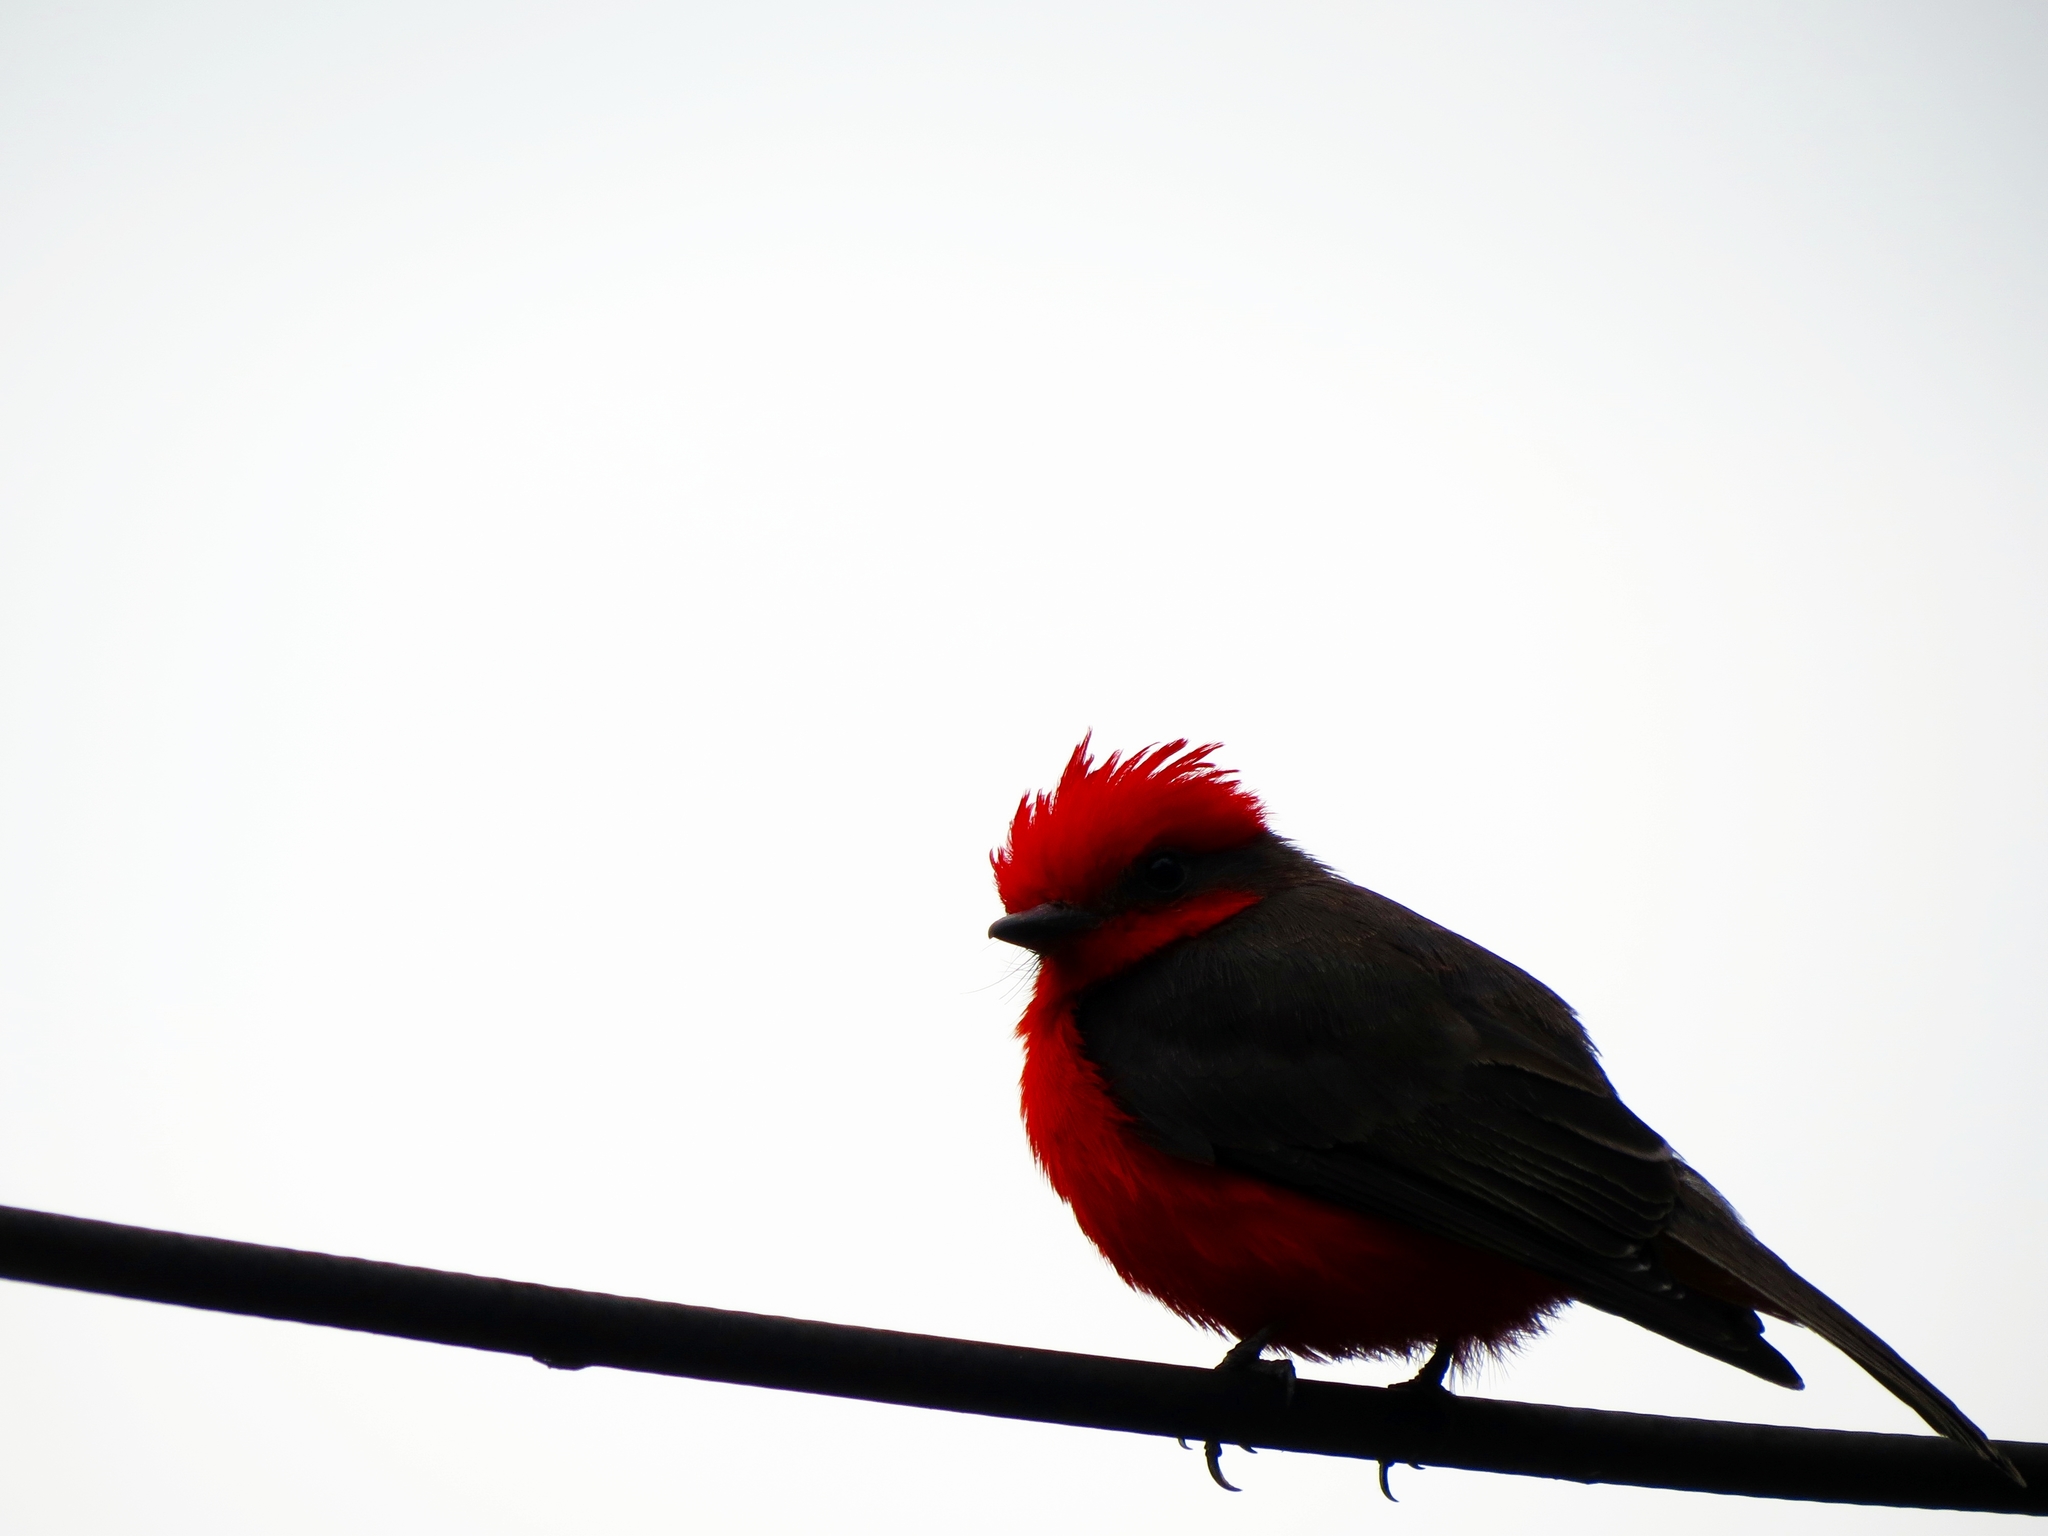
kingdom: Animalia
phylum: Chordata
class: Aves
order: Passeriformes
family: Tyrannidae
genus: Pyrocephalus
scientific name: Pyrocephalus rubinus
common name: Vermilion flycatcher
